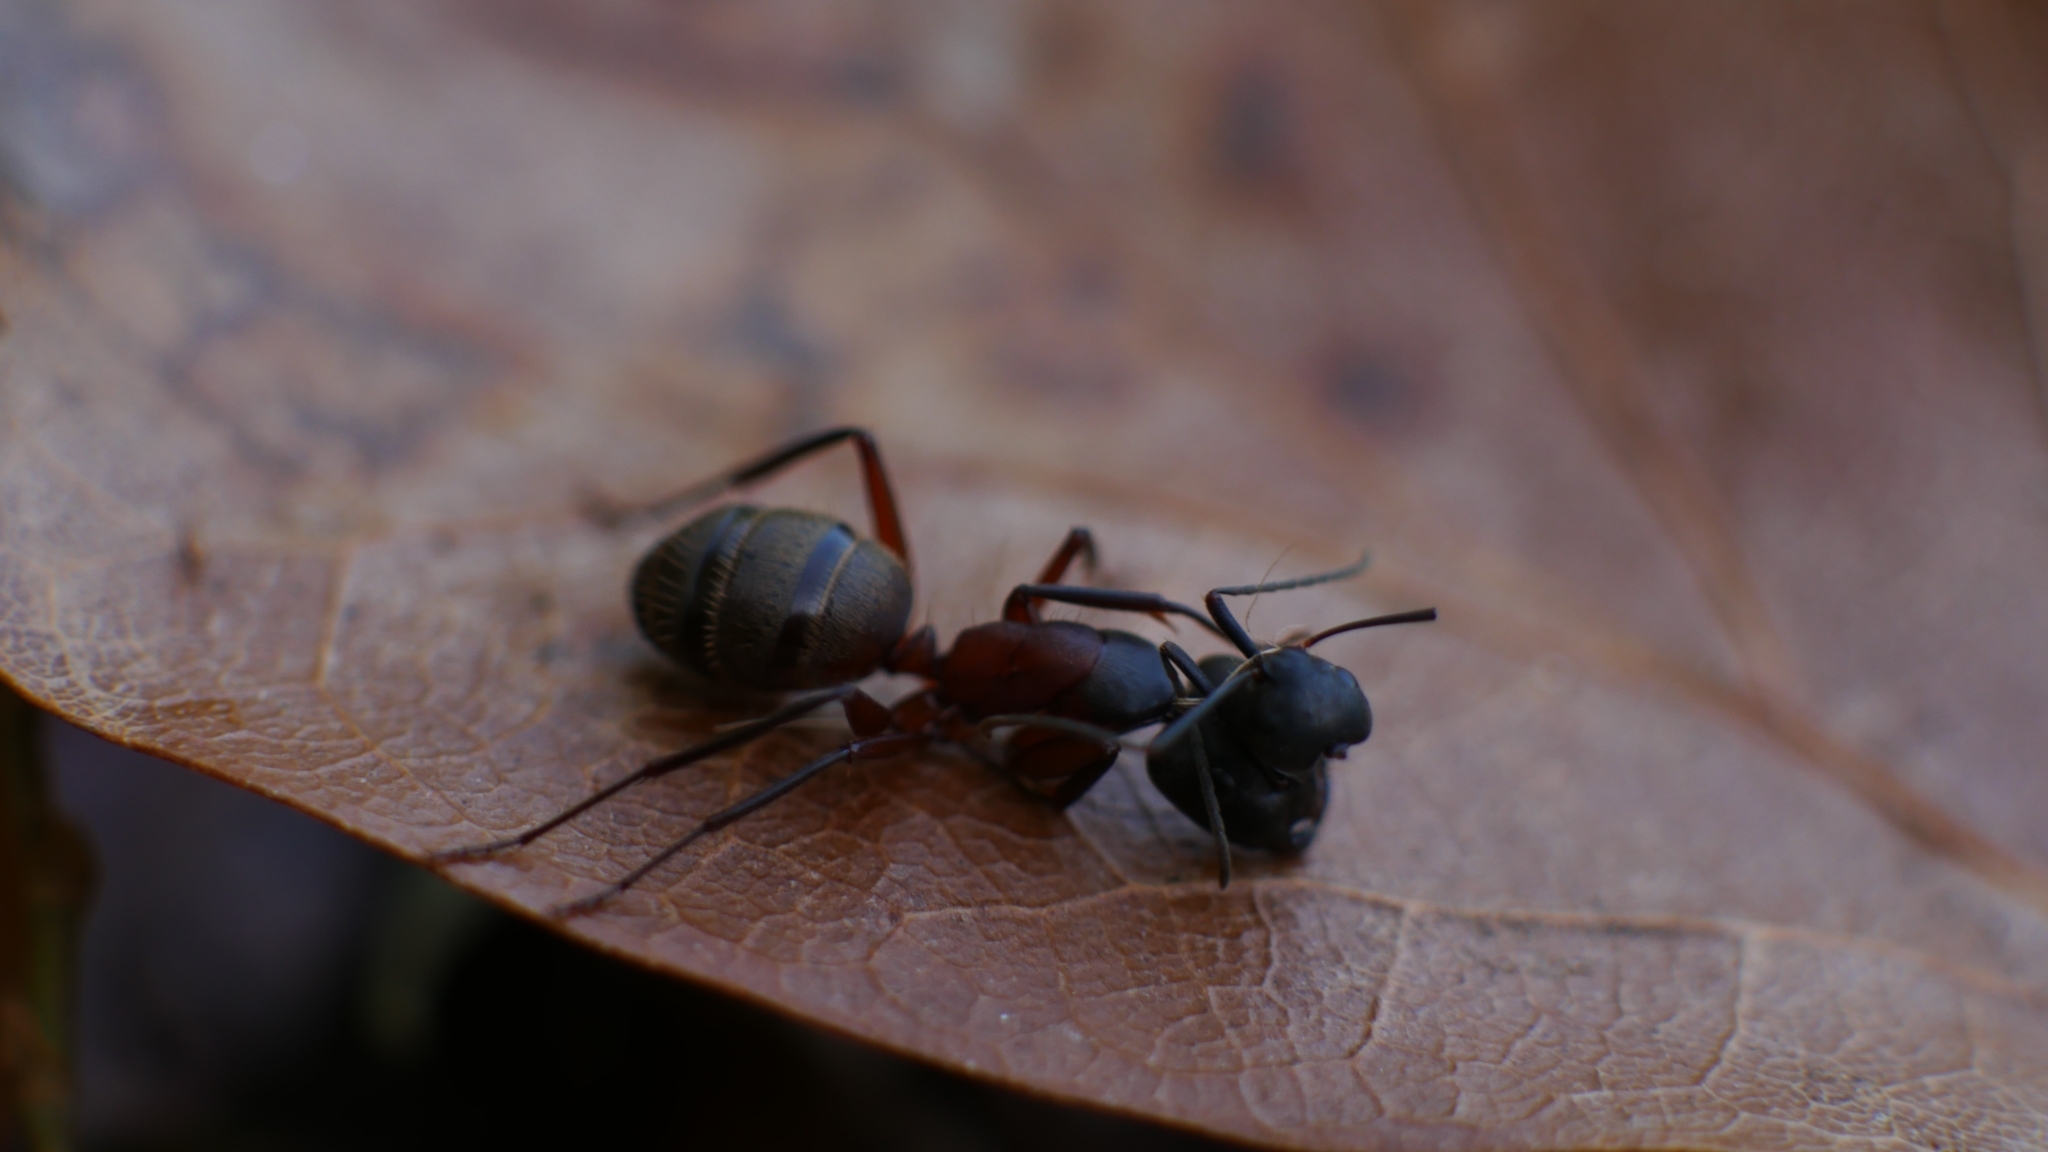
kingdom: Animalia
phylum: Arthropoda
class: Insecta
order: Hymenoptera
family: Formicidae
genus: Camponotus
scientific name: Camponotus chromaiodes
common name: Red carpenter ant
